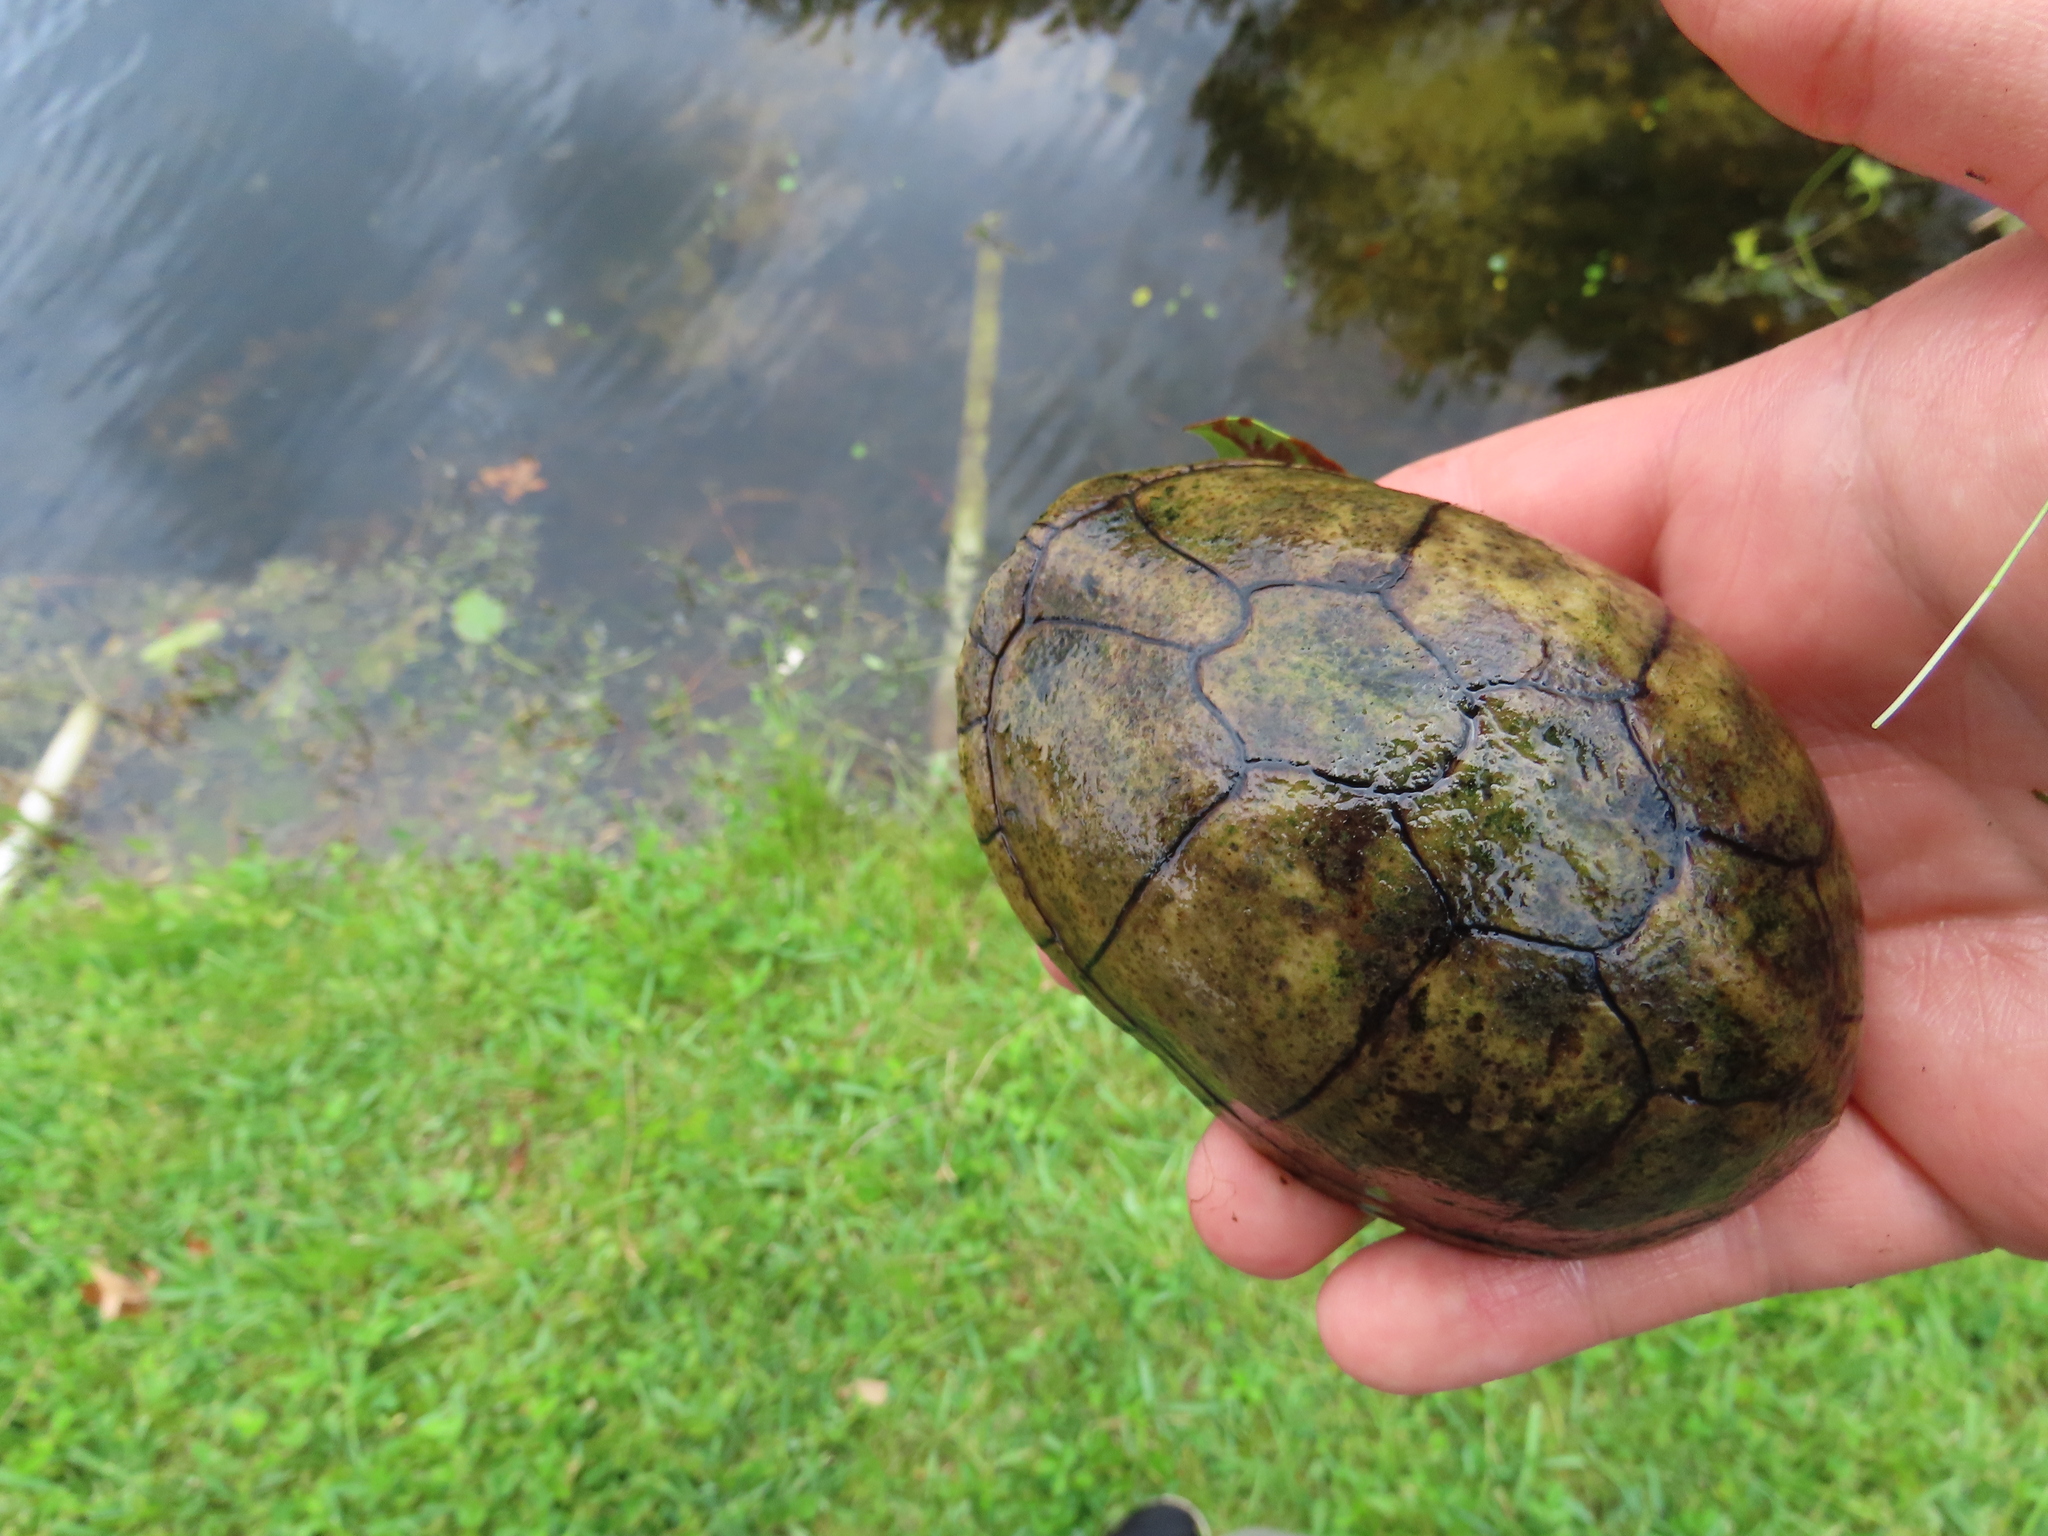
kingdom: Animalia
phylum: Chordata
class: Testudines
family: Kinosternidae
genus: Kinosternon
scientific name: Kinosternon baurii
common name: Striped mud turtle
